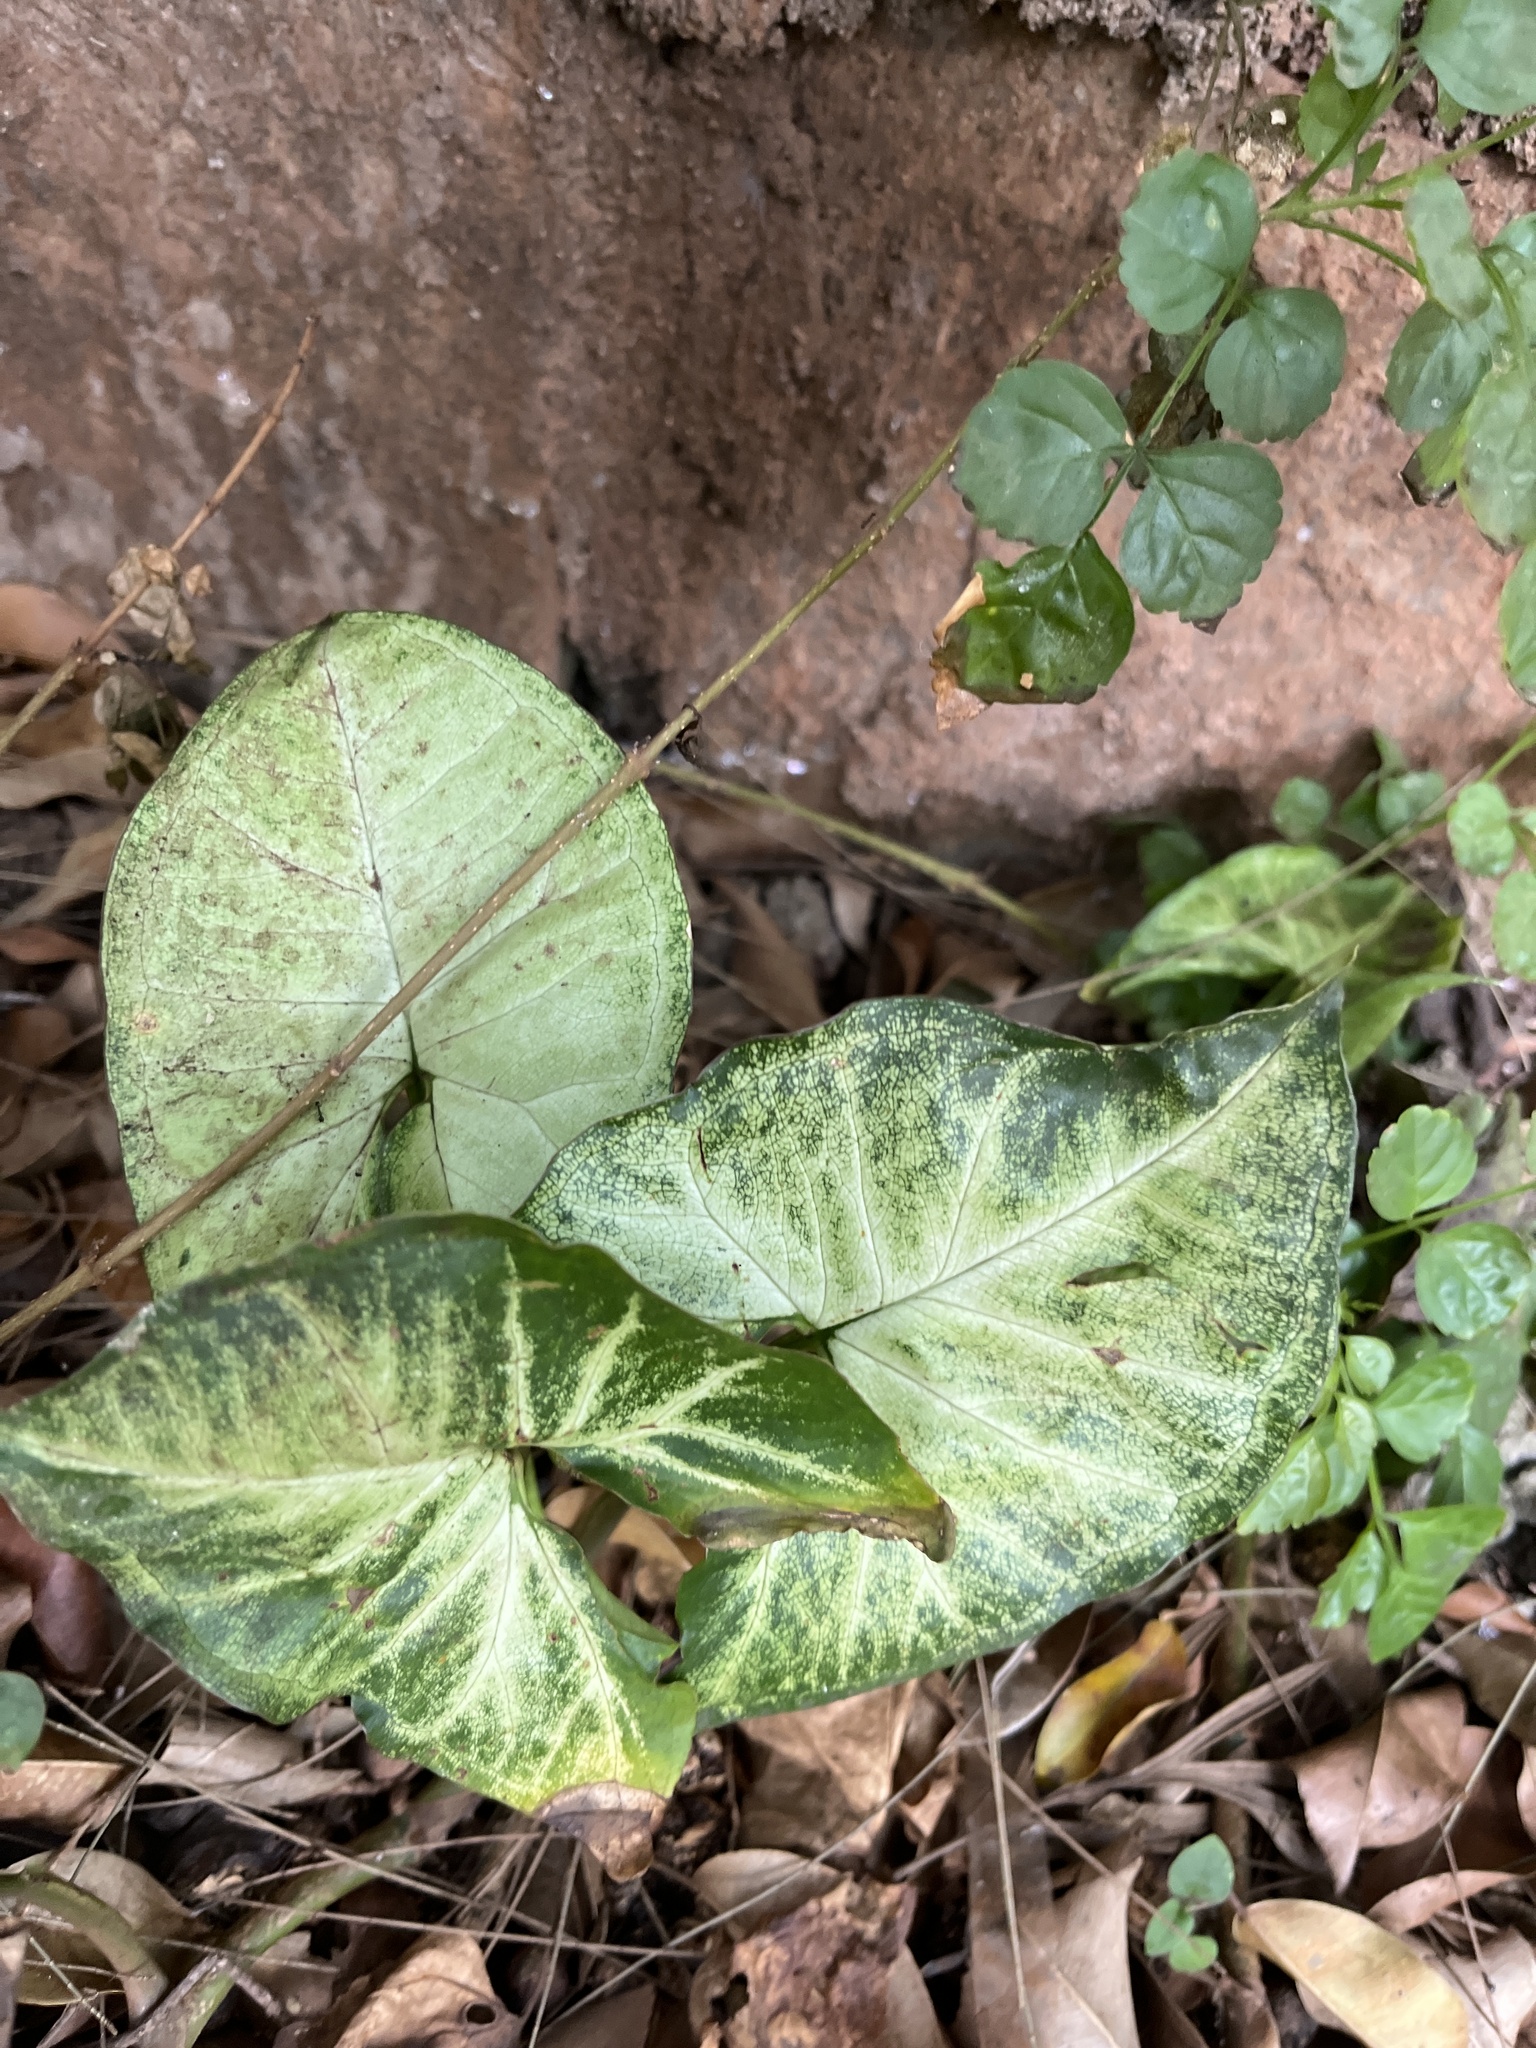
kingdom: Plantae
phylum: Tracheophyta
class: Liliopsida
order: Alismatales
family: Araceae
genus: Syngonium
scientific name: Syngonium podophyllum
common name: American evergreen
